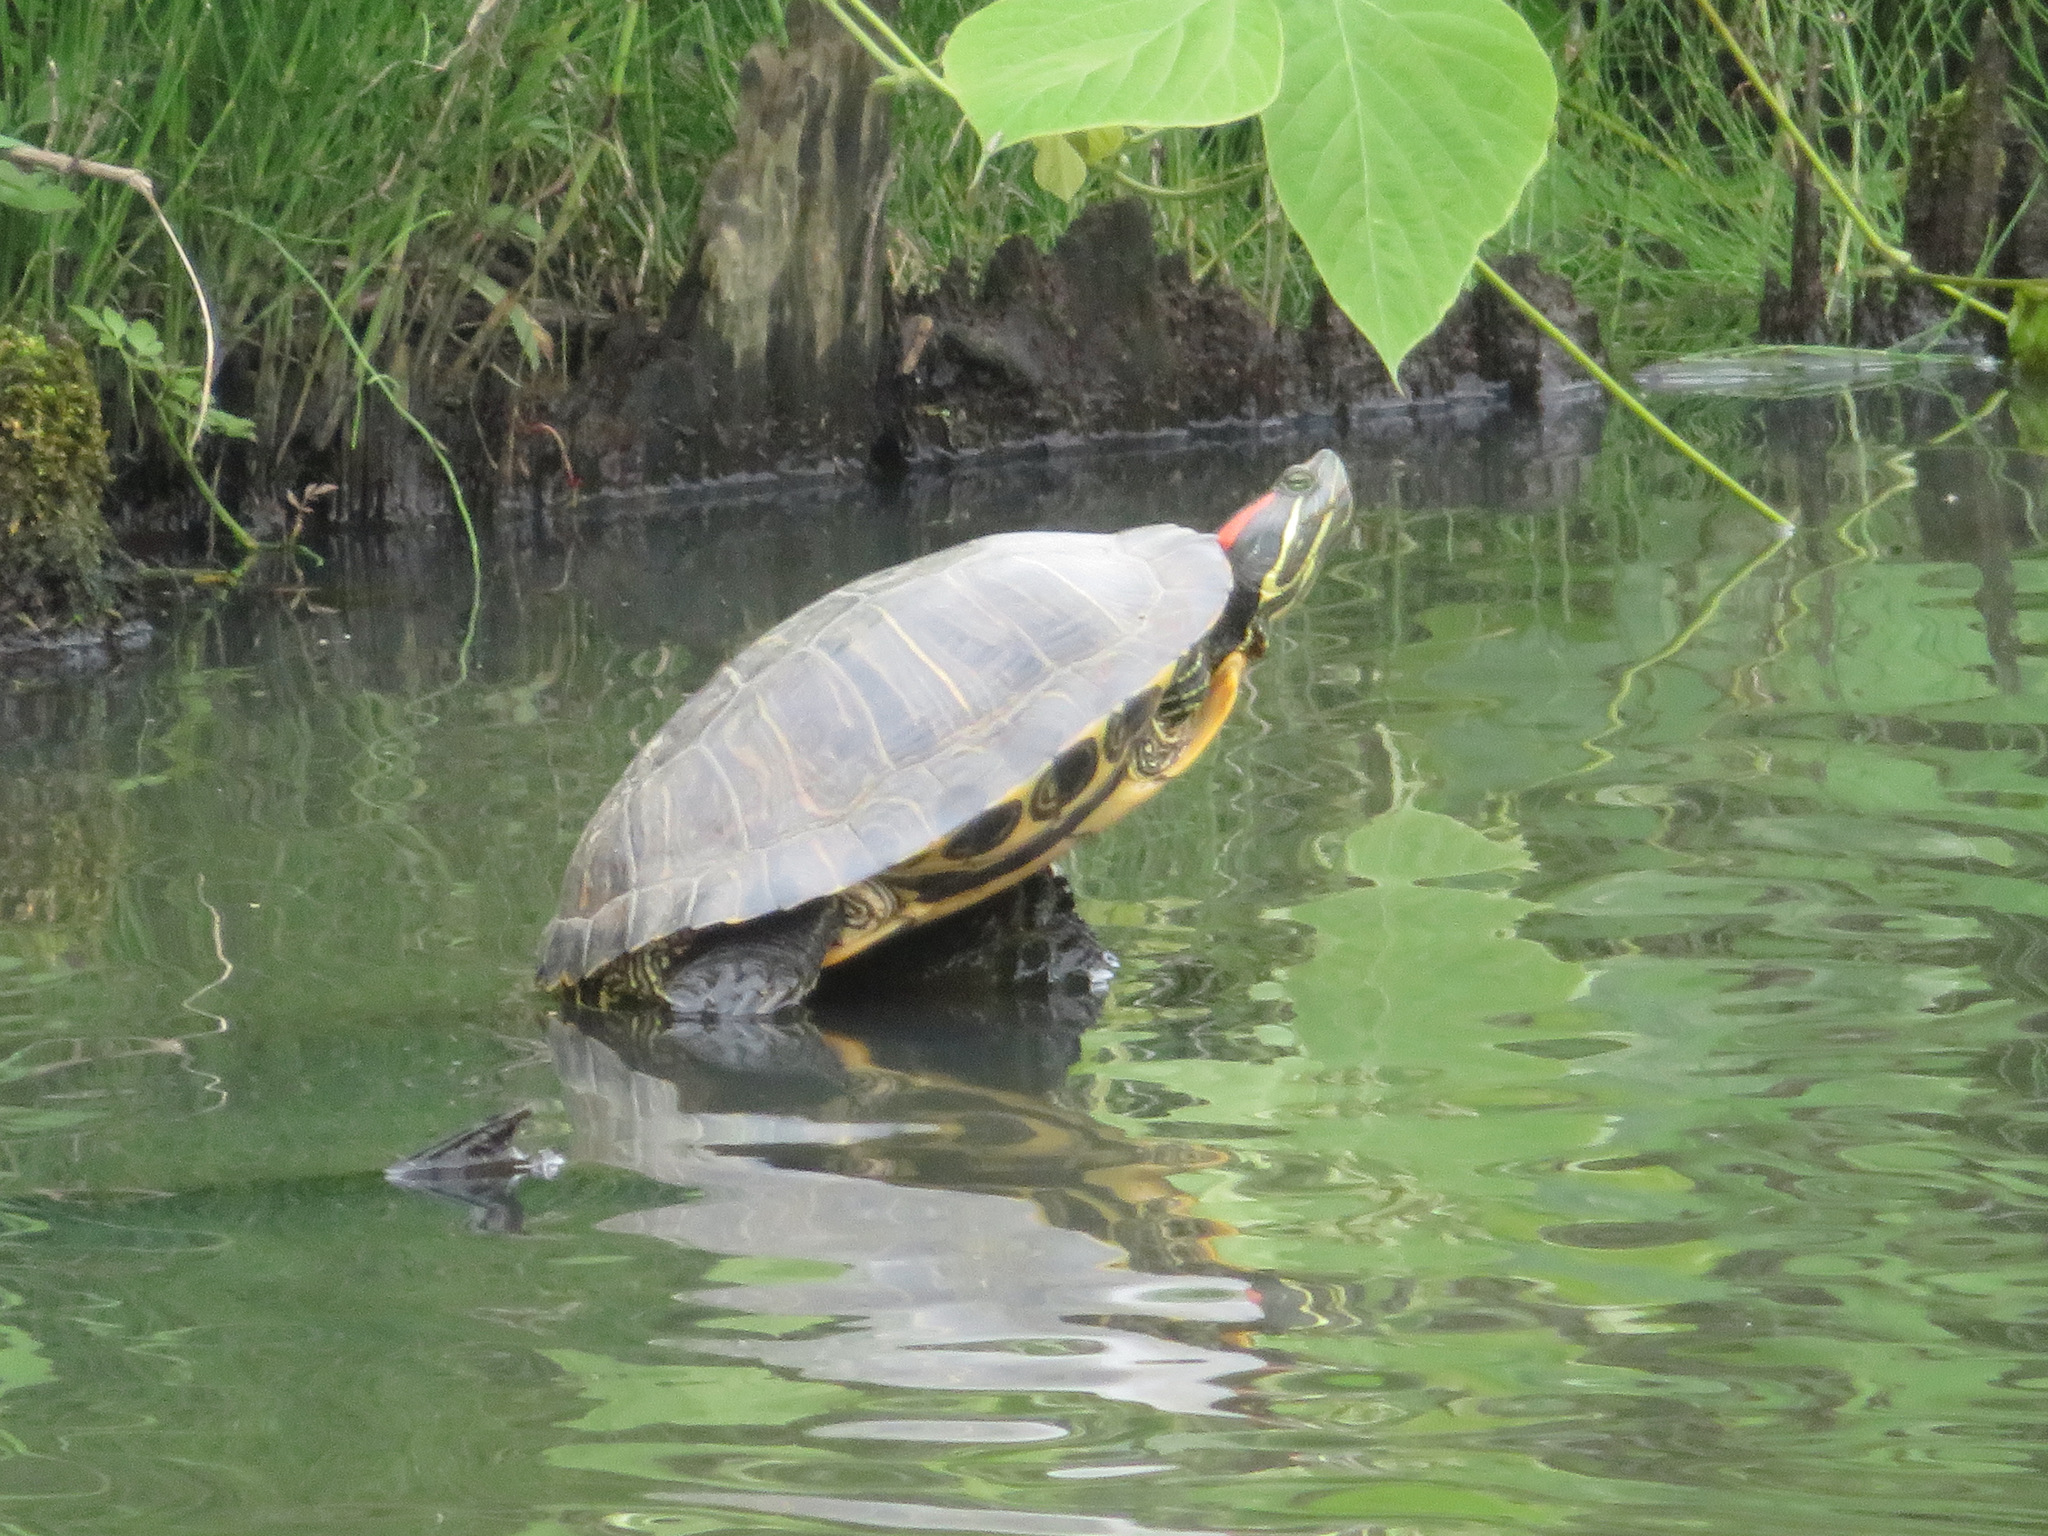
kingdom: Animalia
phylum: Chordata
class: Testudines
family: Emydidae
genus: Trachemys
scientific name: Trachemys scripta
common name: Slider
